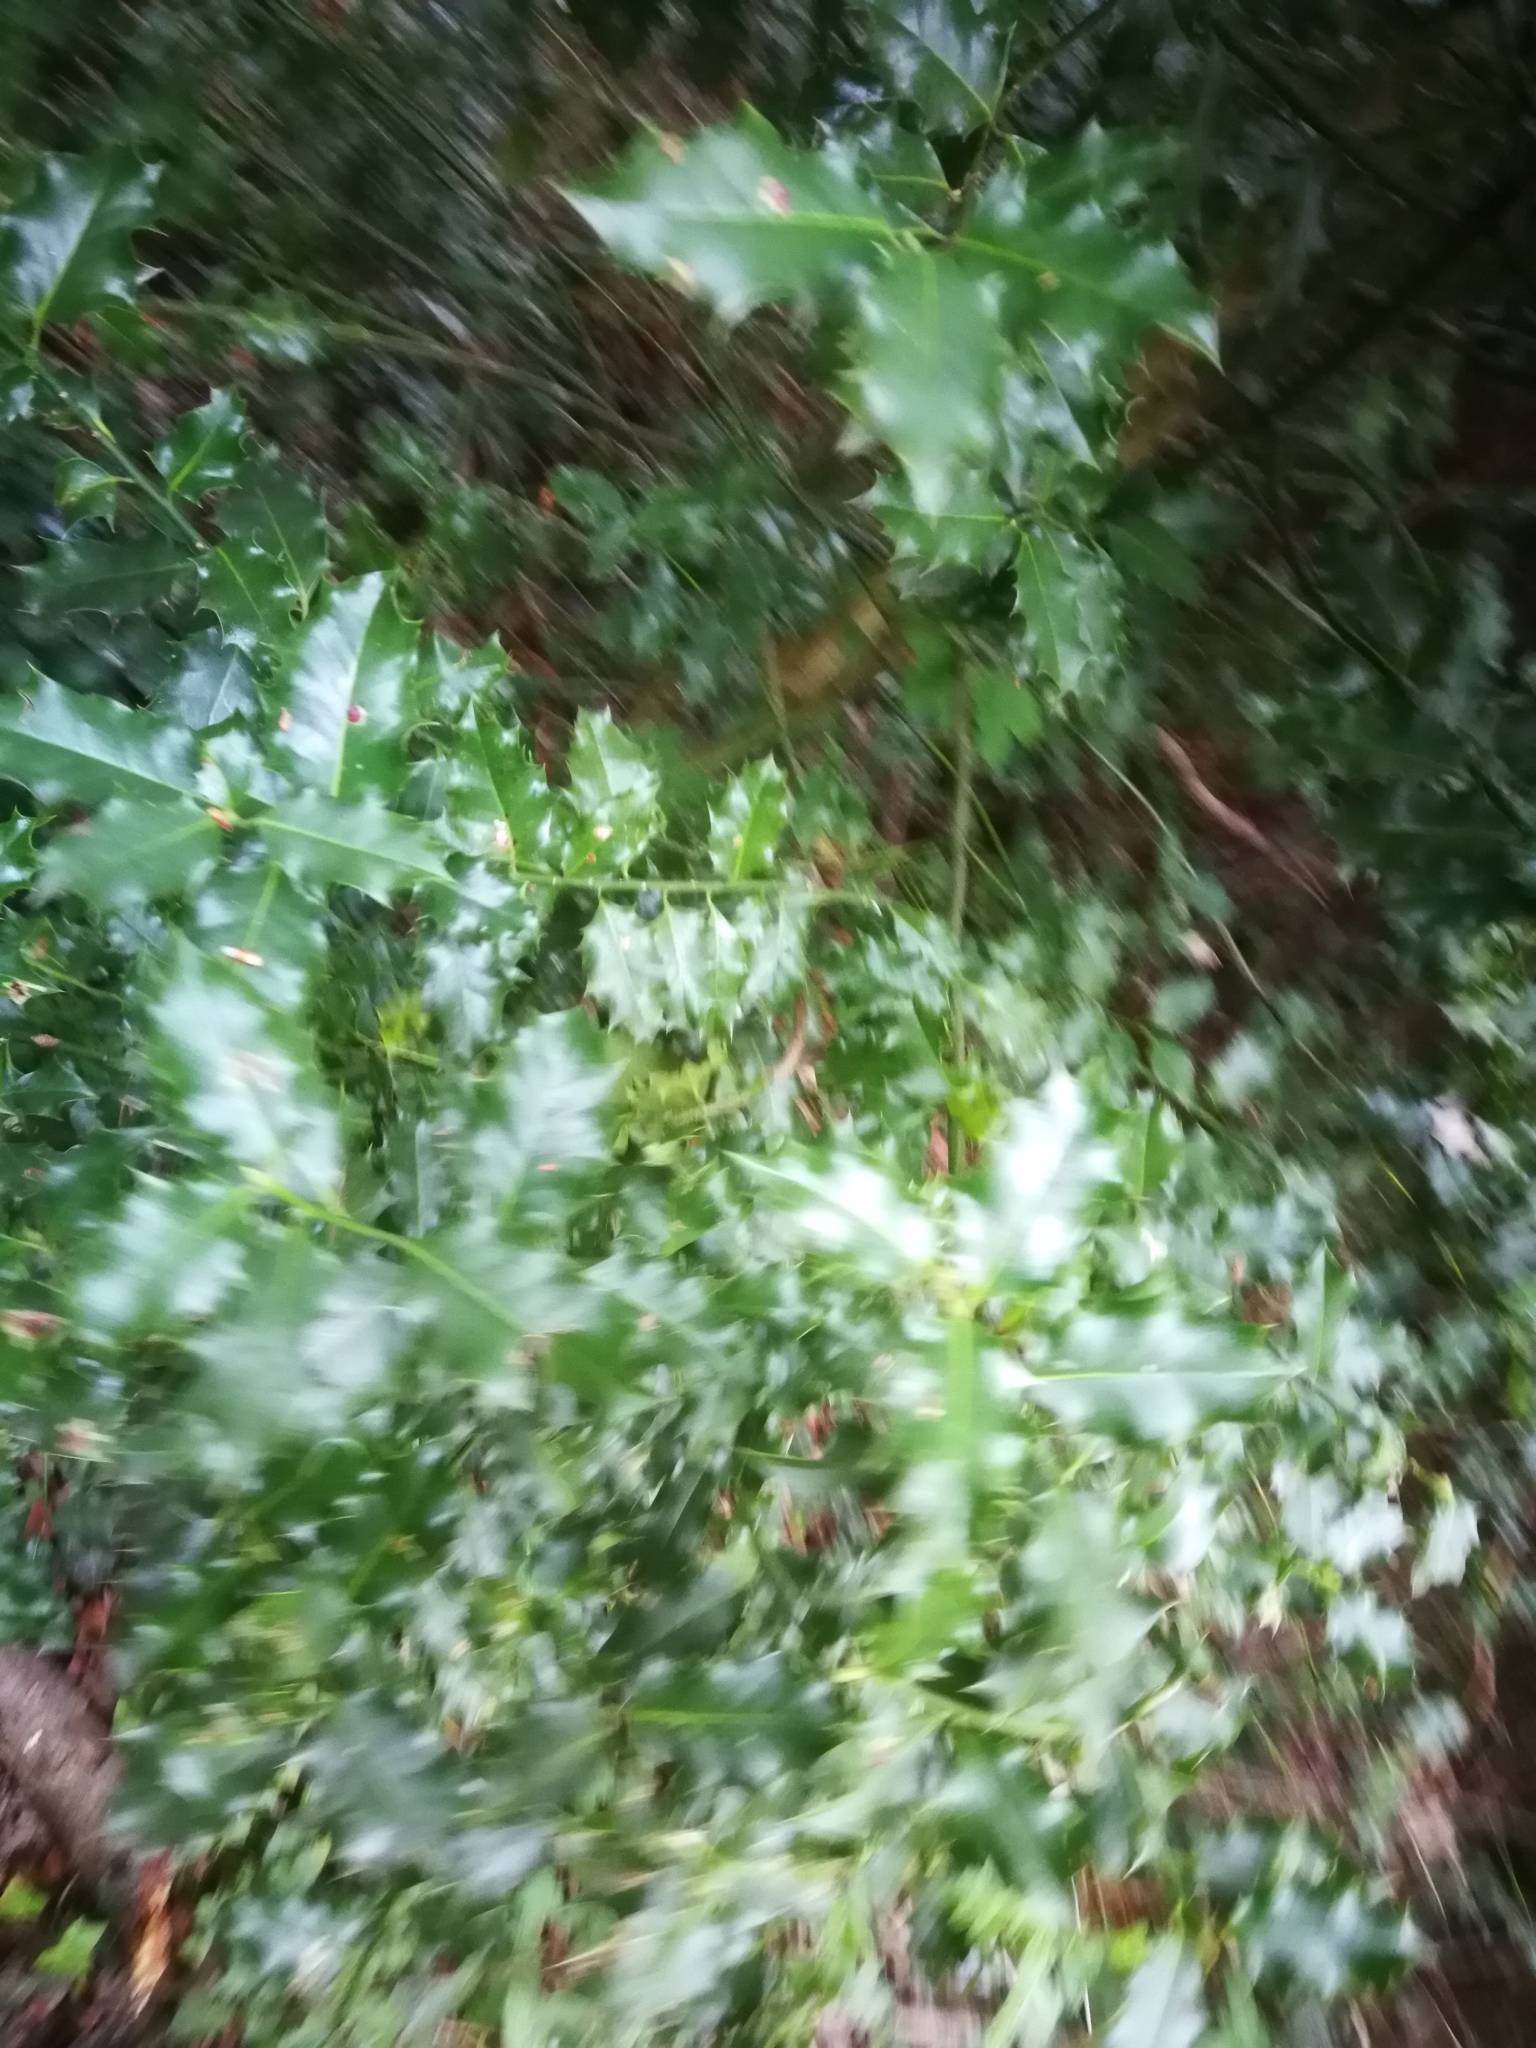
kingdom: Plantae
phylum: Tracheophyta
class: Magnoliopsida
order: Aquifoliales
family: Aquifoliaceae
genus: Ilex
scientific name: Ilex aquifolium
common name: English holly
